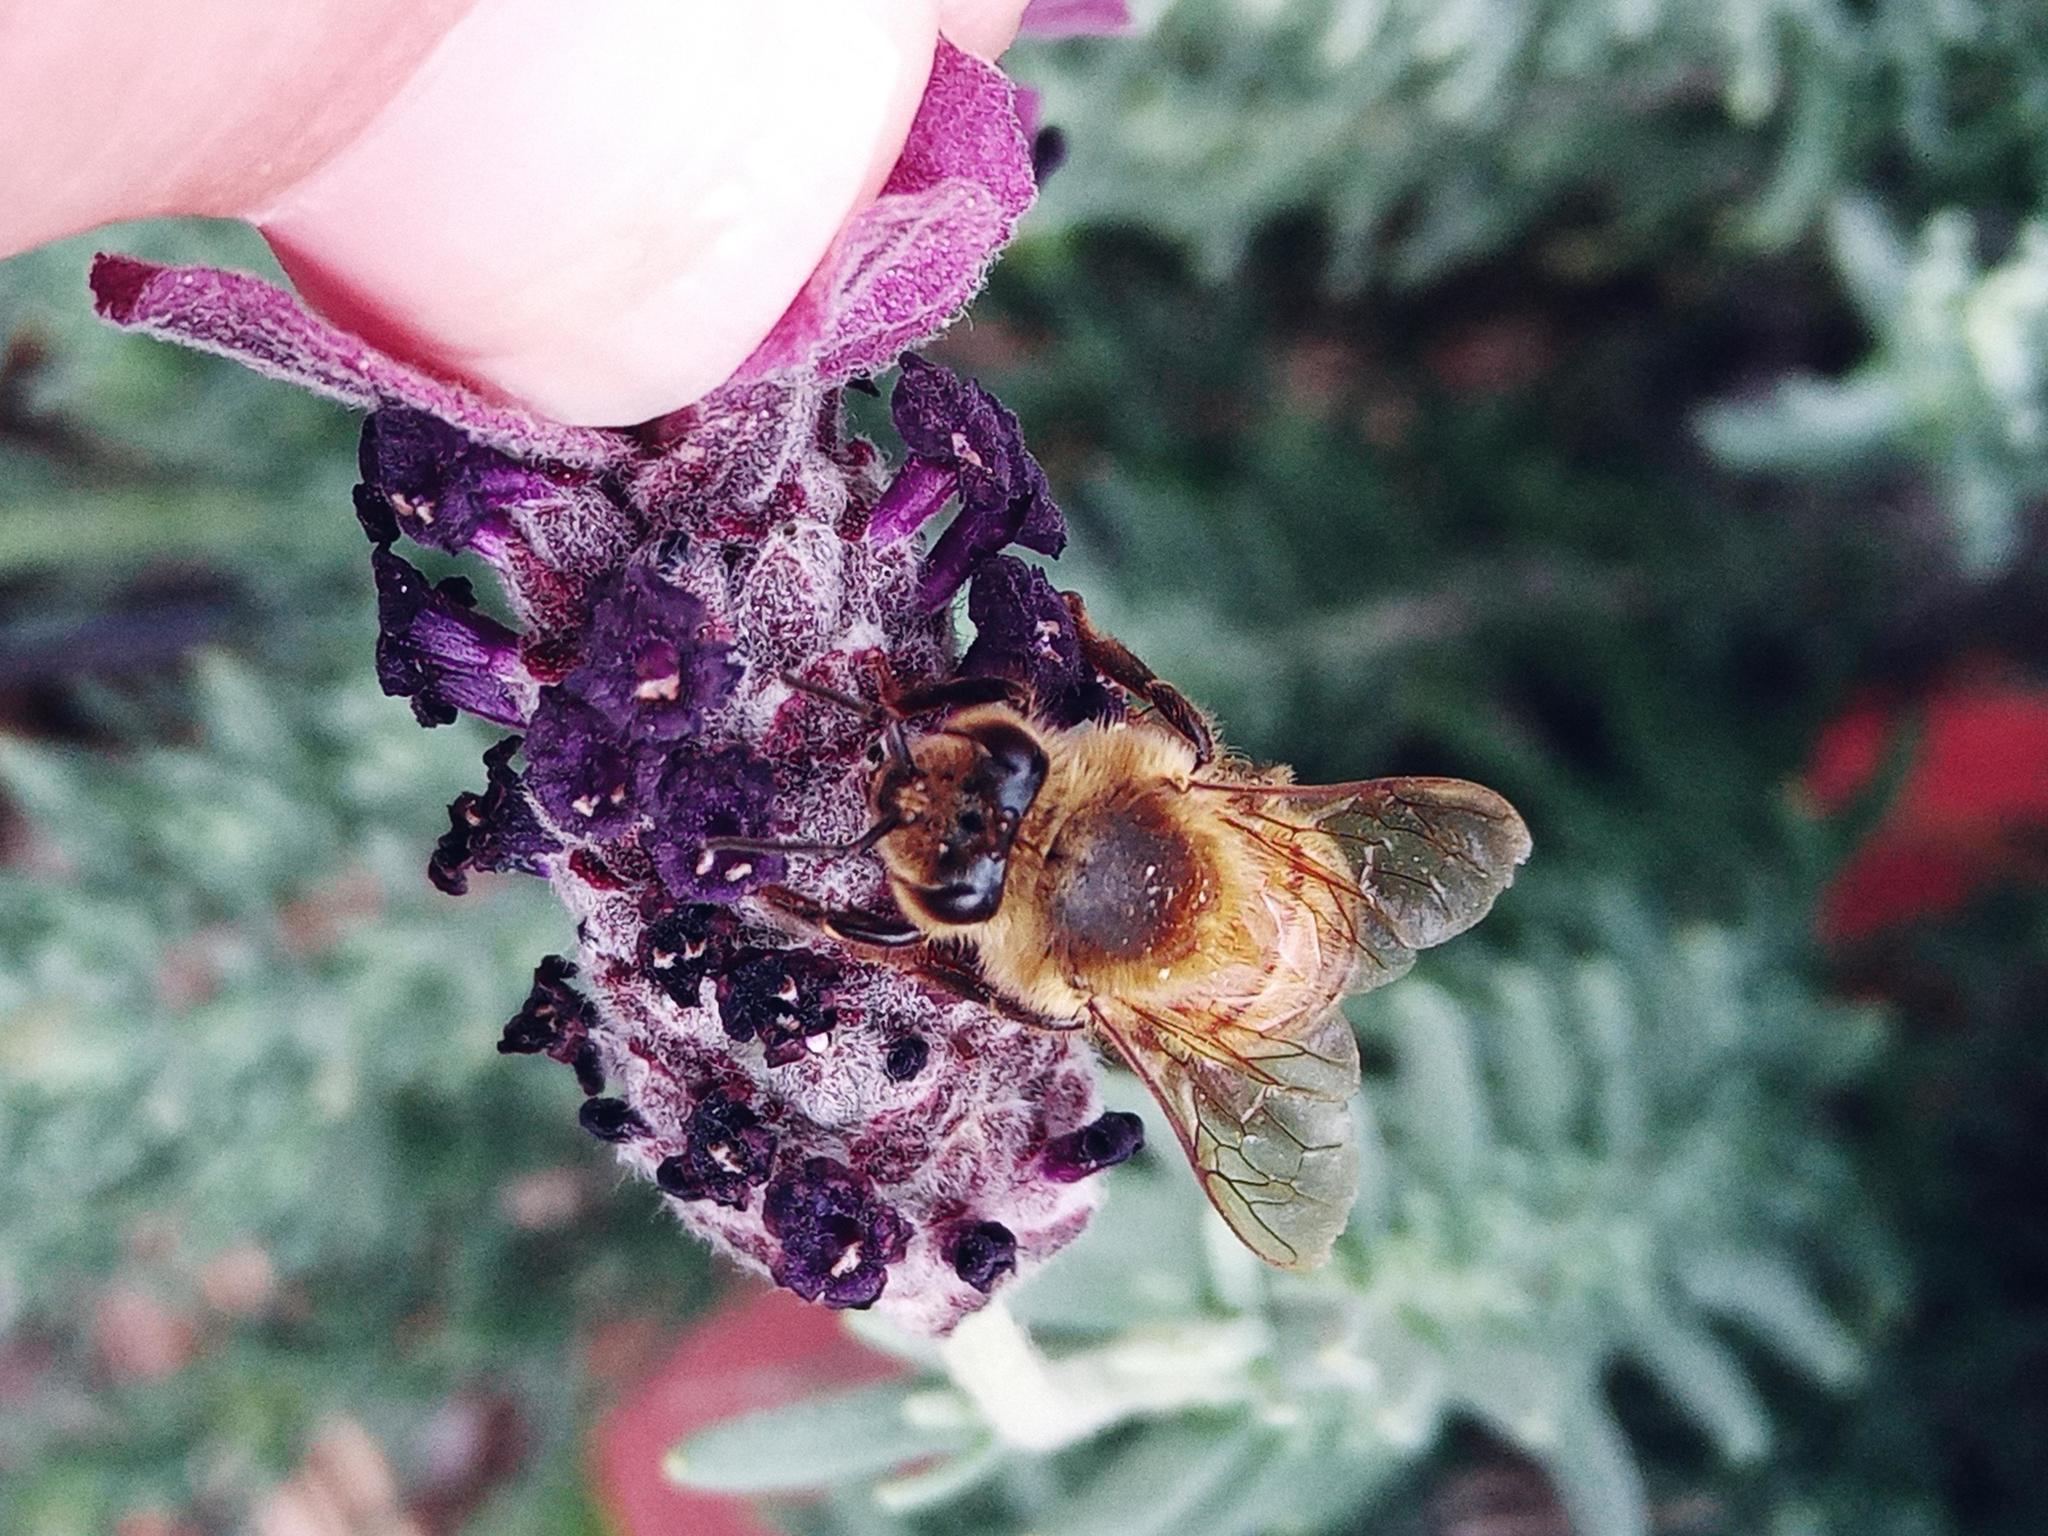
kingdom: Animalia
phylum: Arthropoda
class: Insecta
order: Hymenoptera
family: Apidae
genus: Apis
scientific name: Apis mellifera
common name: Honey bee
